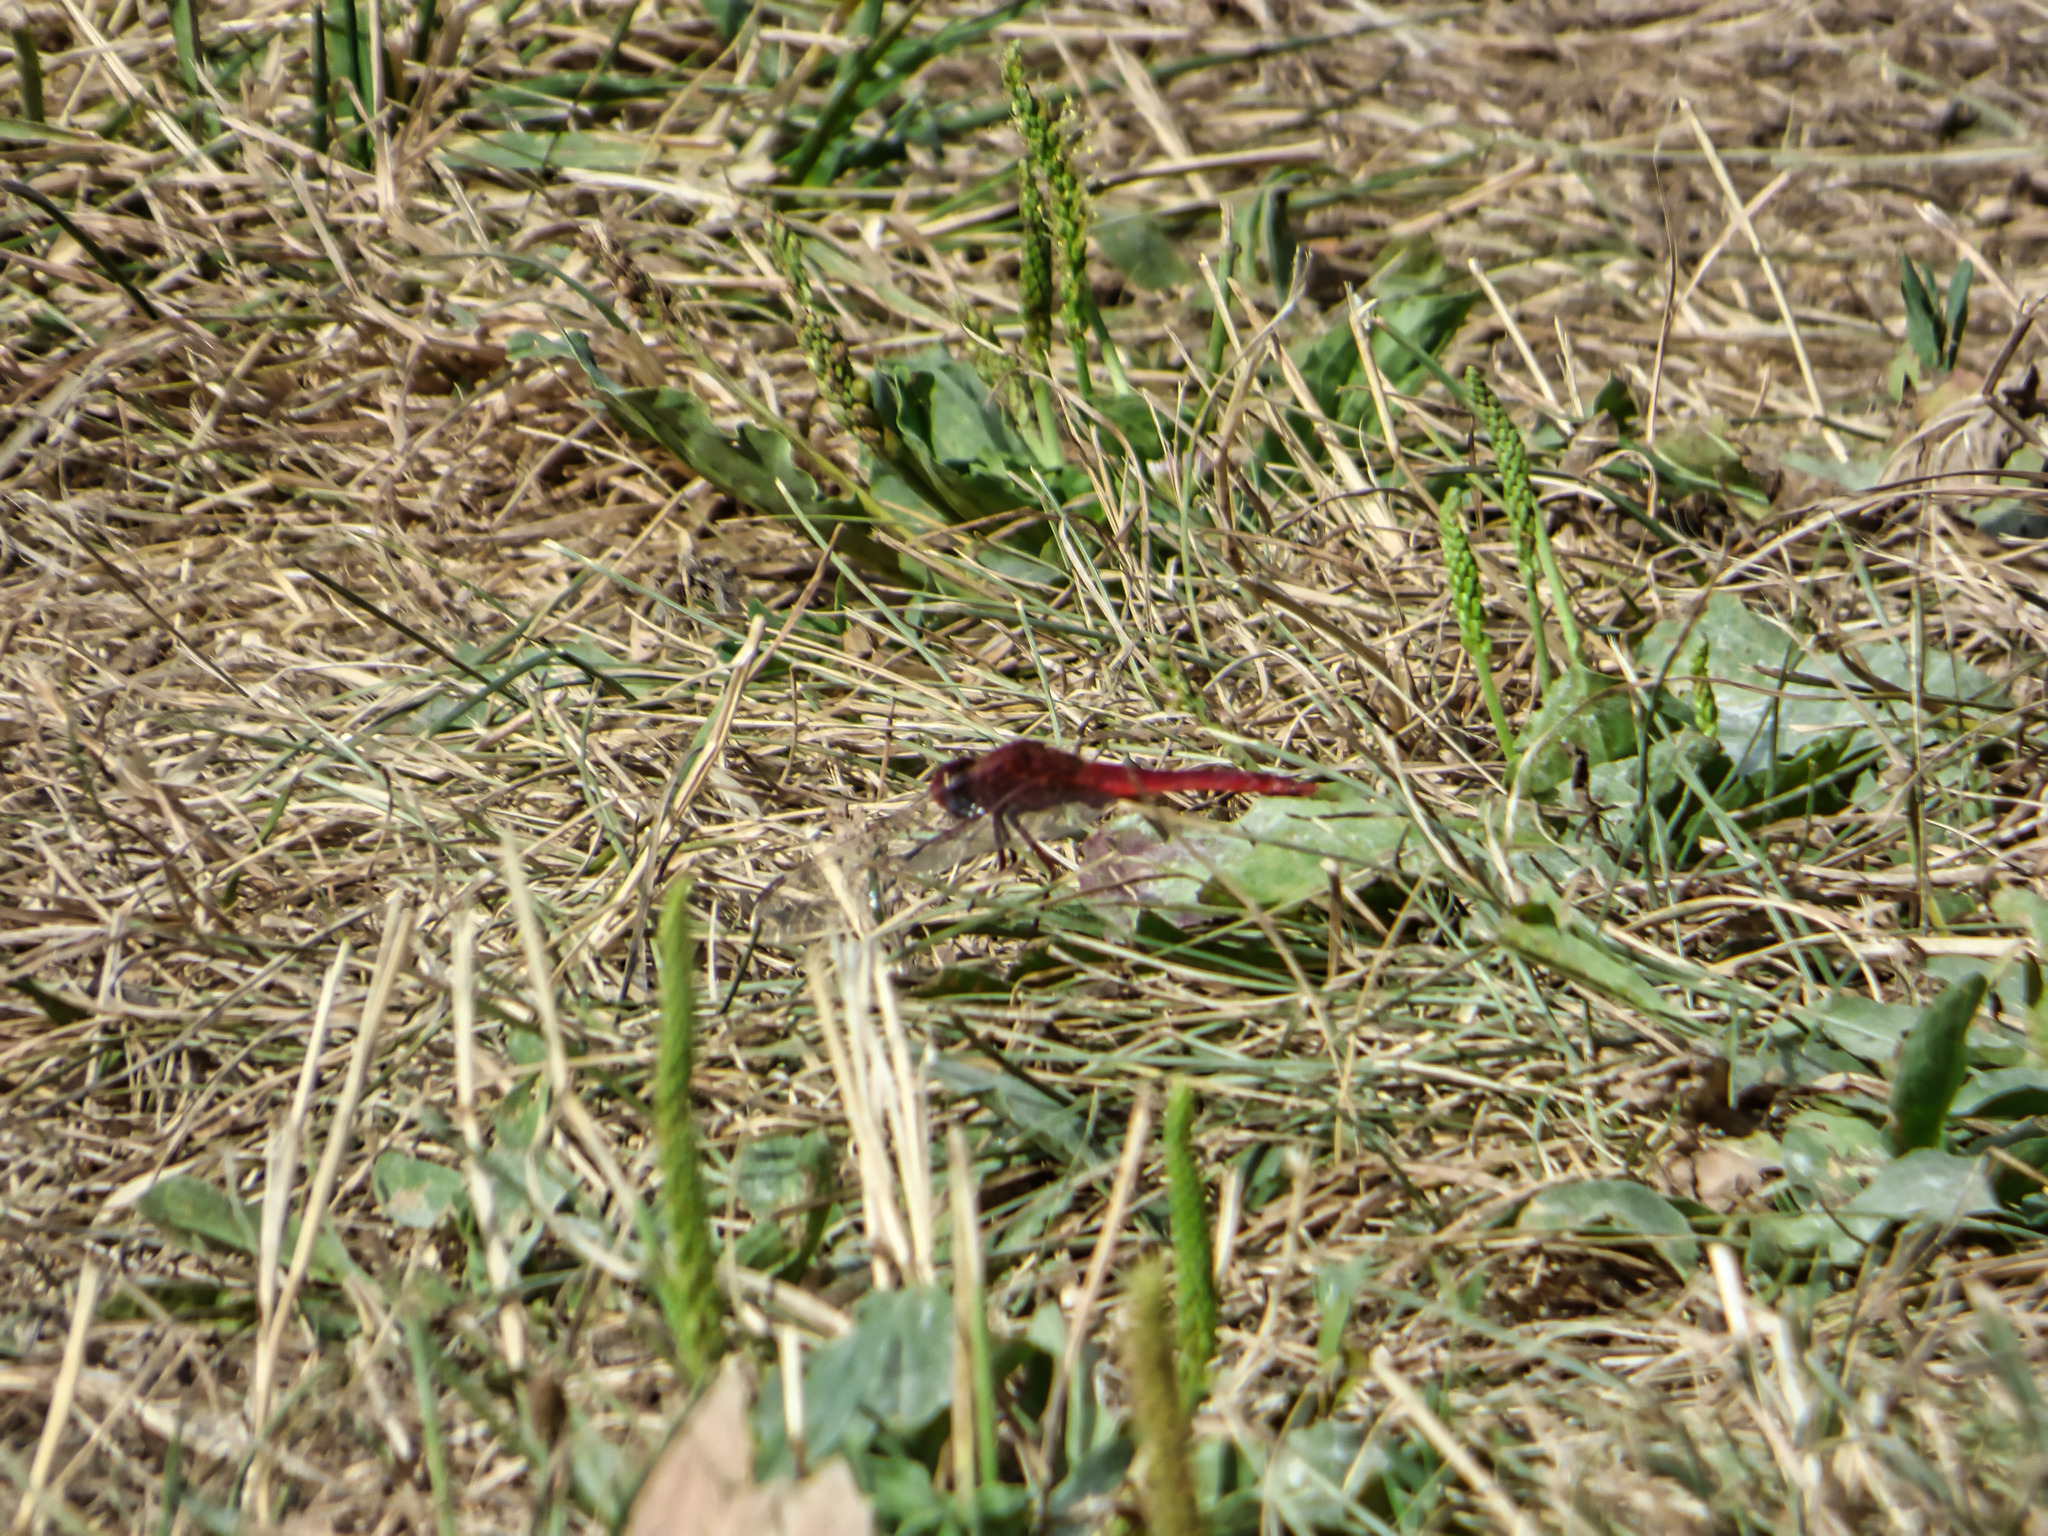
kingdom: Animalia
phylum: Arthropoda
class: Insecta
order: Odonata
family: Libellulidae
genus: Crocothemis
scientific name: Crocothemis erythraea
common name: Scarlet dragonfly
